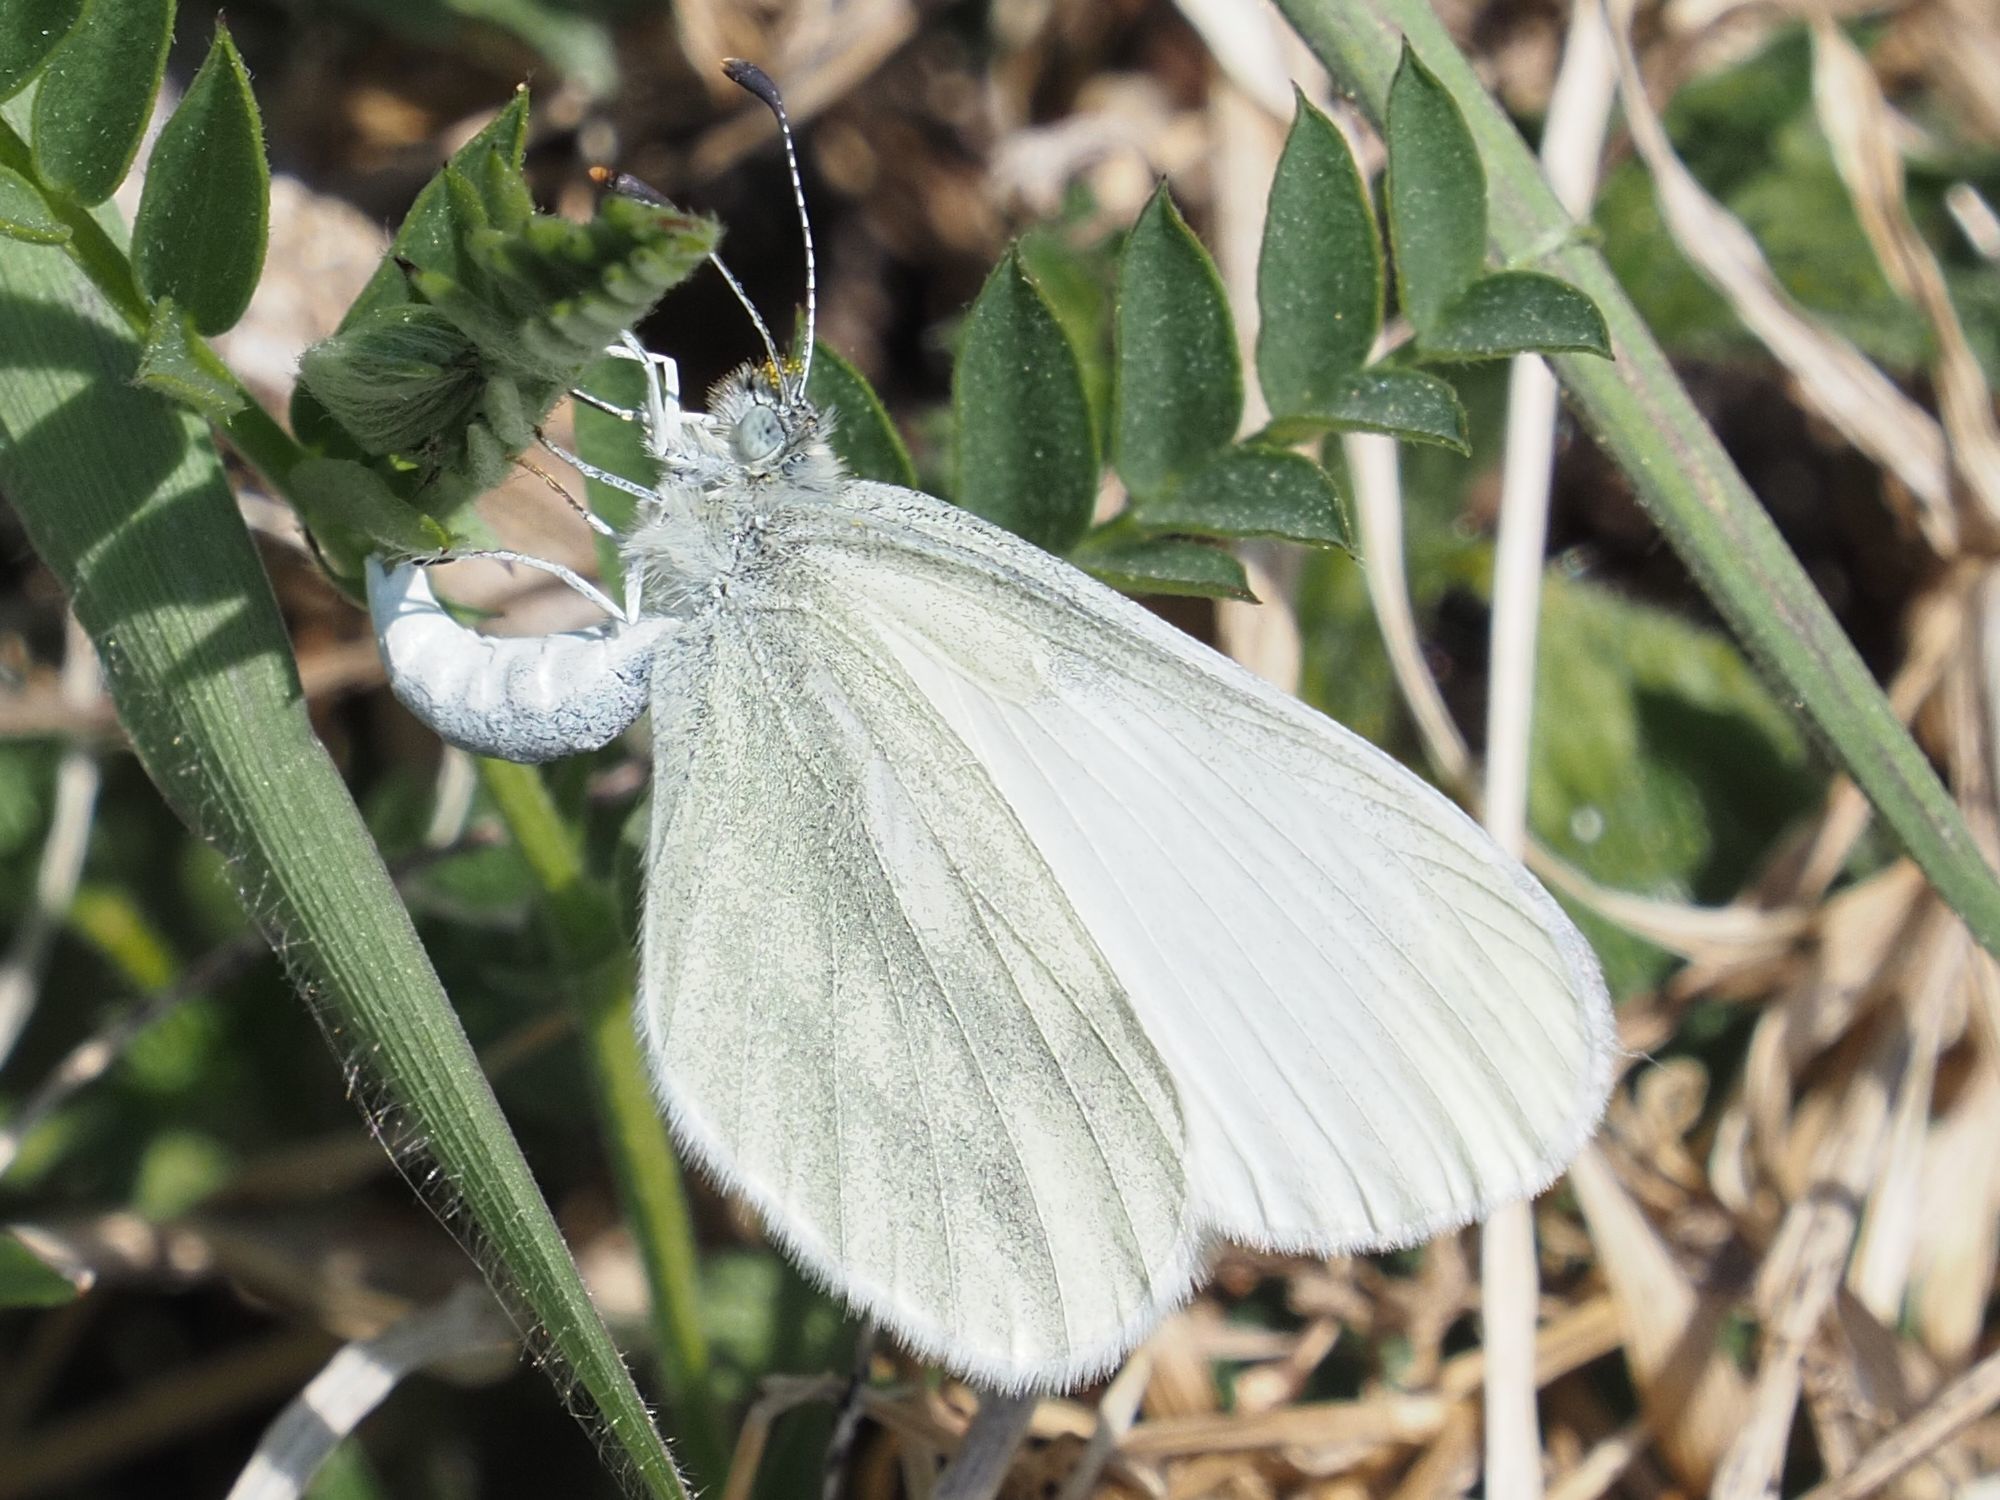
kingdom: Animalia
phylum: Arthropoda
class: Insecta
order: Lepidoptera
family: Pieridae
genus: Leptidea
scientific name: Leptidea
